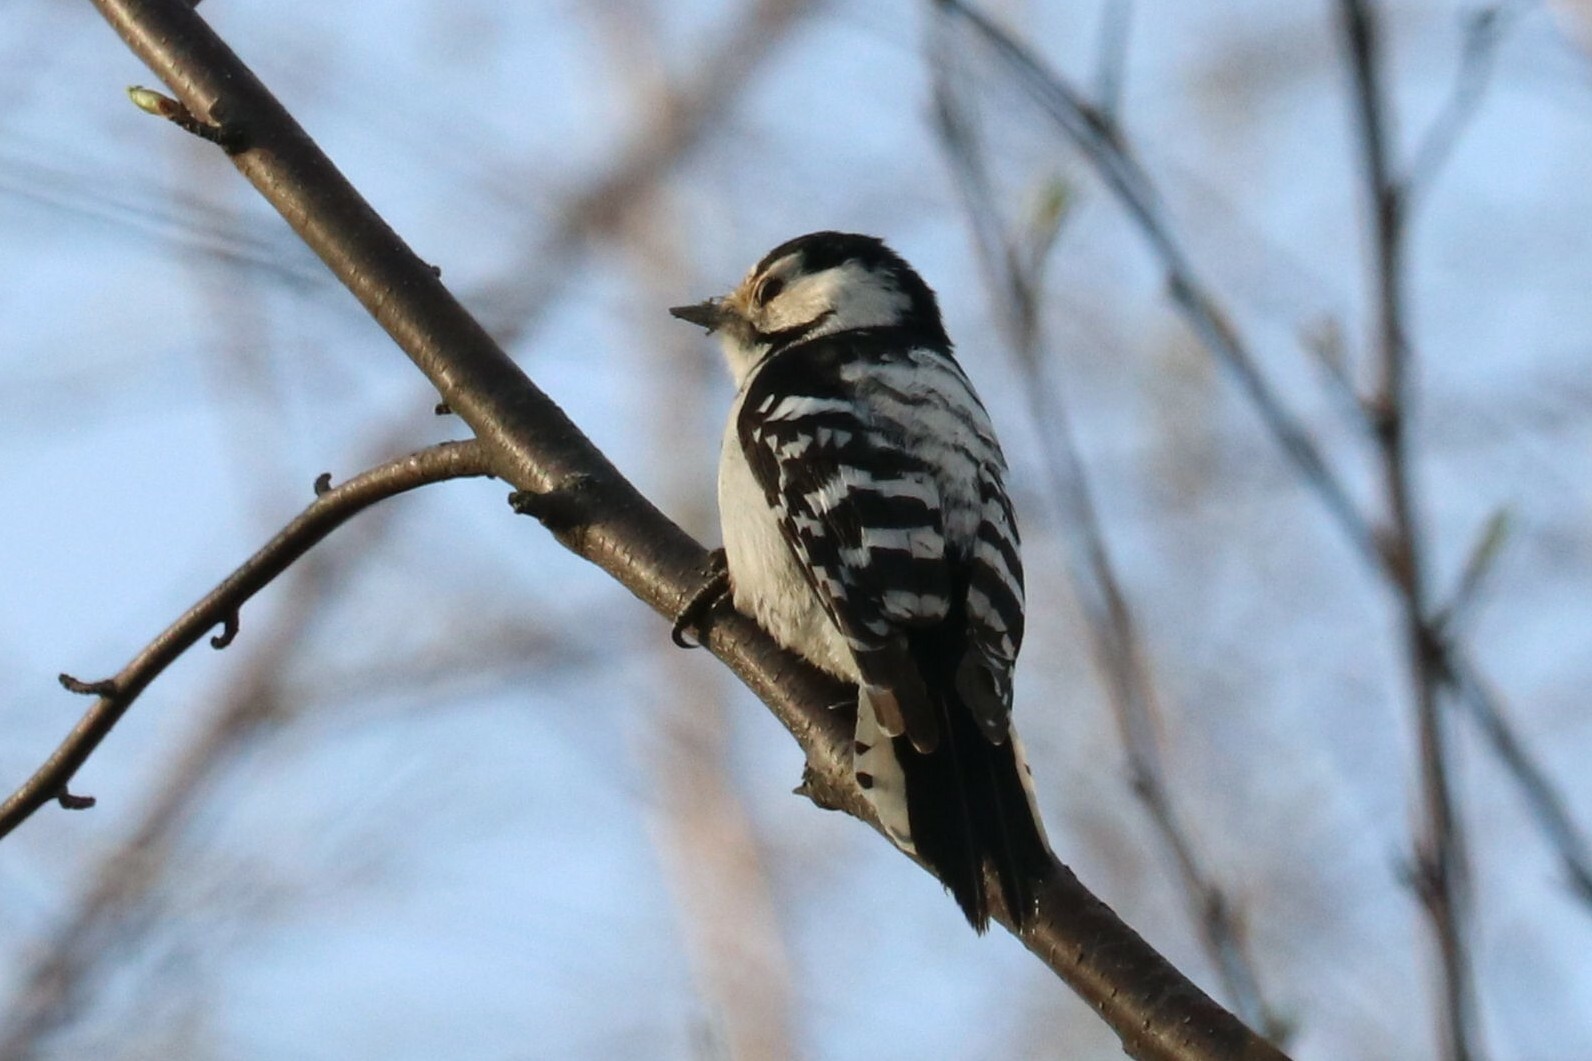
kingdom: Animalia
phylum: Chordata
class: Aves
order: Piciformes
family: Picidae
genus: Dryobates
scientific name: Dryobates minor
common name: Lesser spotted woodpecker
